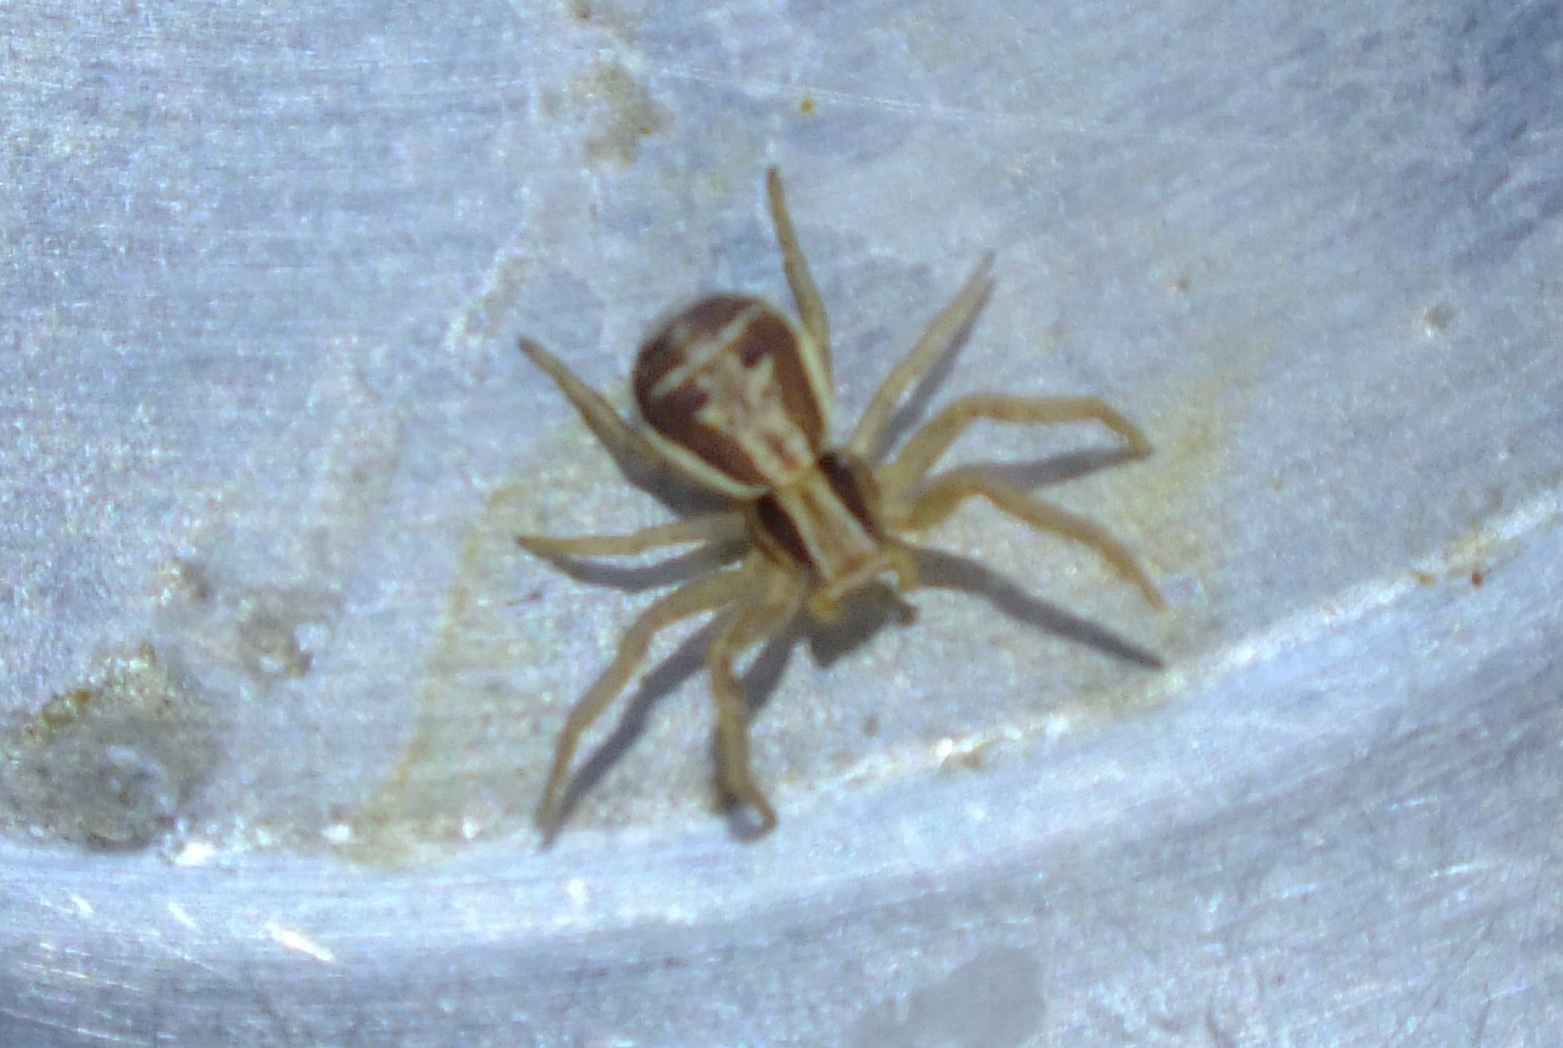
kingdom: Animalia
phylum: Arthropoda
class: Arachnida
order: Araneae
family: Thomisidae
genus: Xysticus
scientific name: Xysticus ulmi
